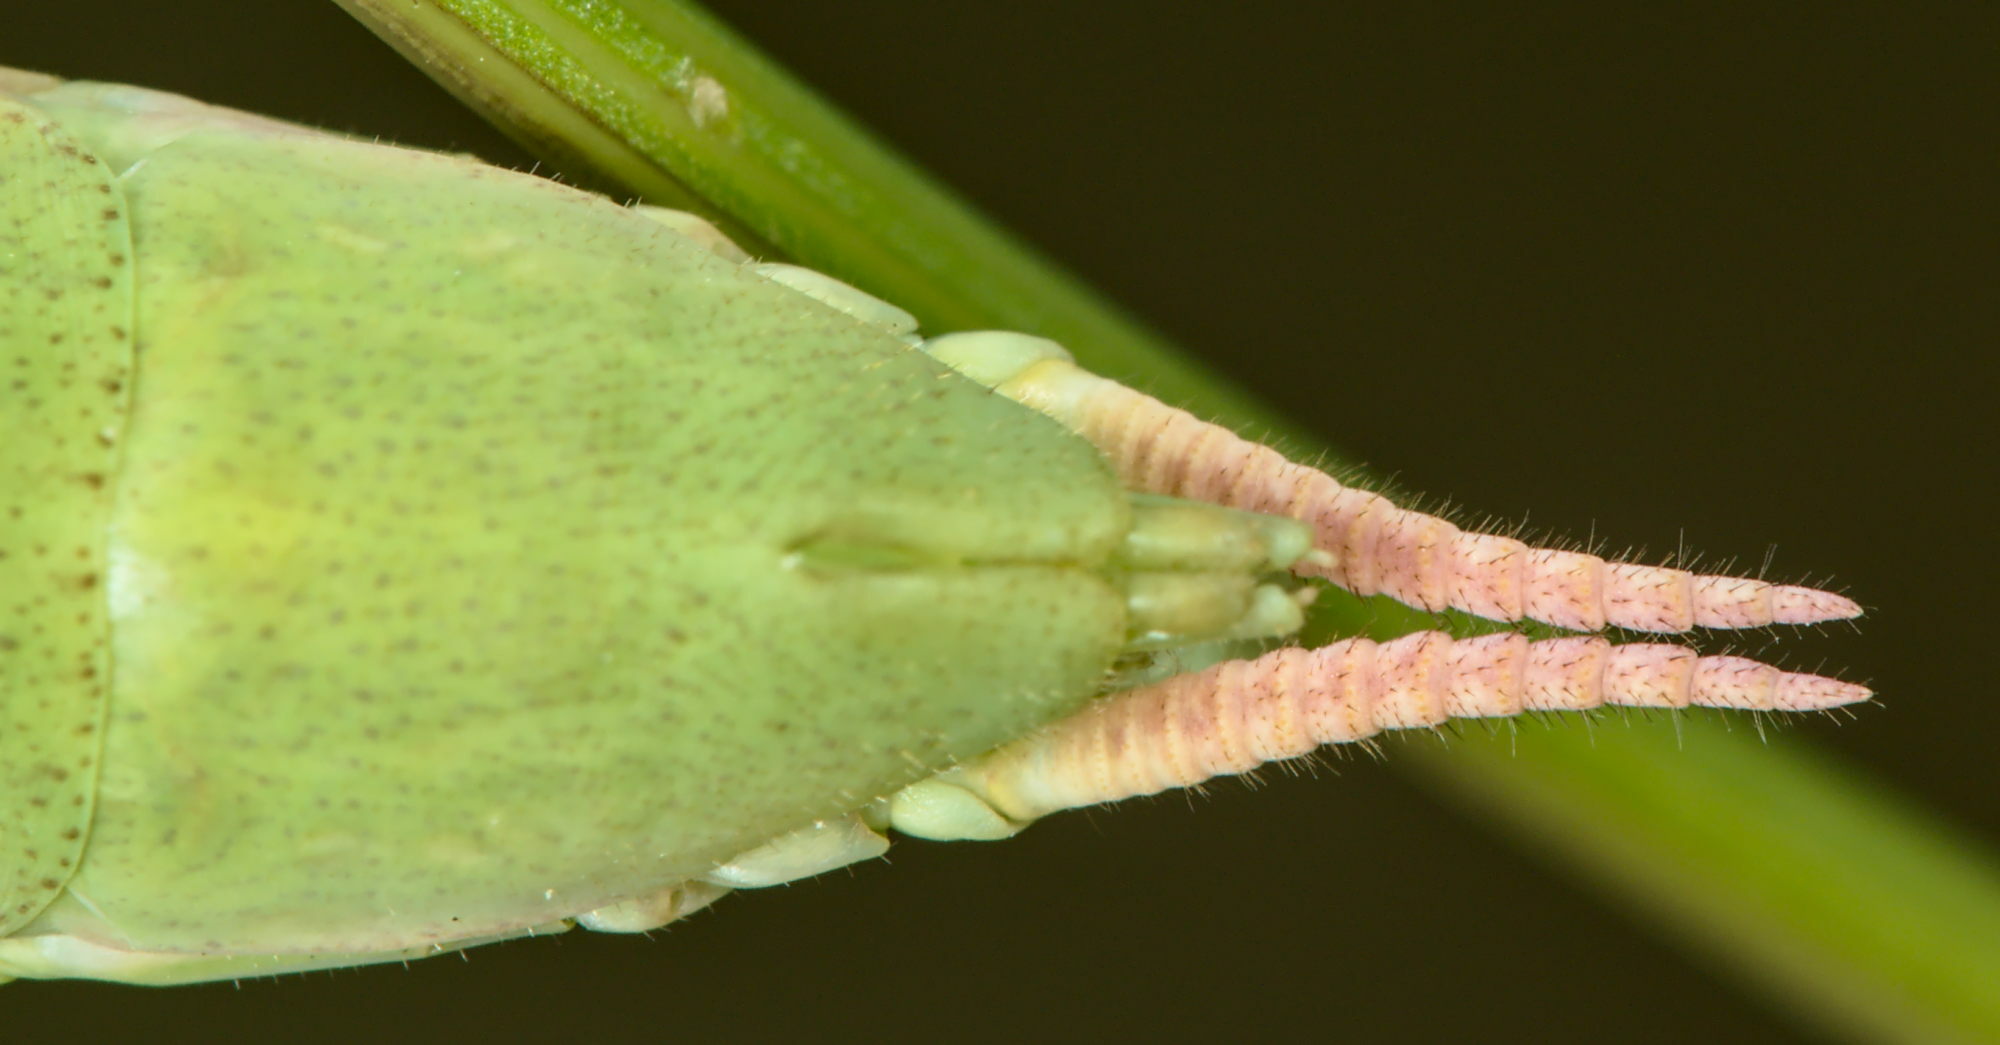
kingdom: Animalia
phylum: Arthropoda
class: Insecta
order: Mantodea
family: Mantidae
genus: Mantis
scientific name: Mantis religiosa
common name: Praying mantis
